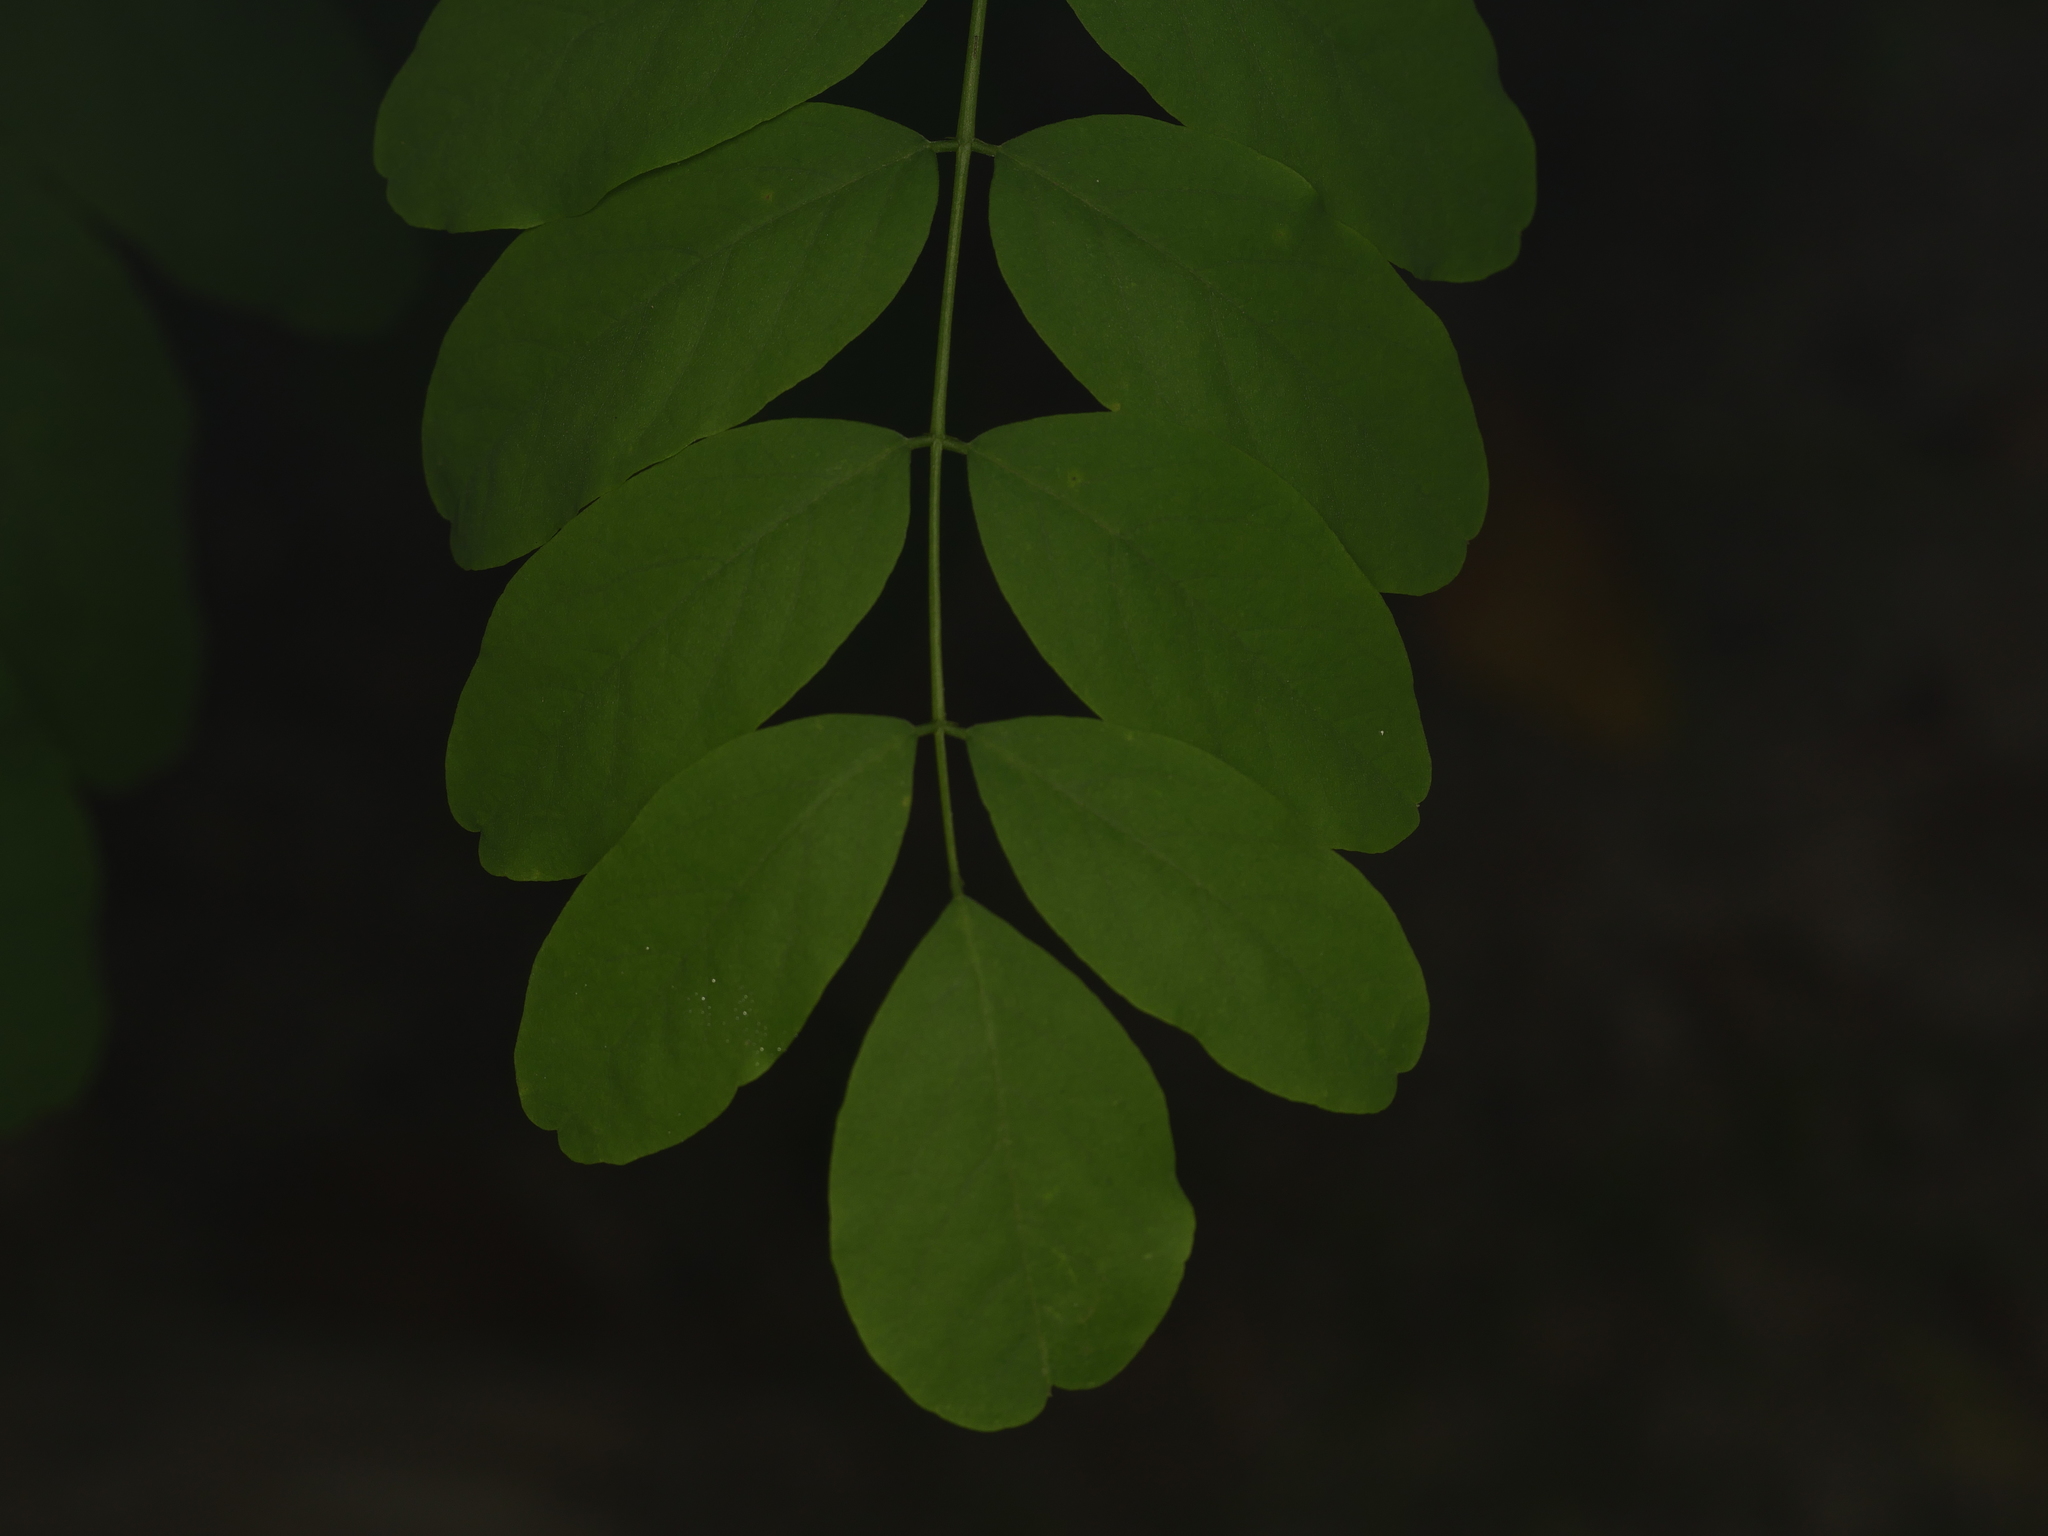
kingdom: Plantae
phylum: Tracheophyta
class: Magnoliopsida
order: Fabales
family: Fabaceae
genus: Robinia
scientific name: Robinia pseudoacacia
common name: Black locust
